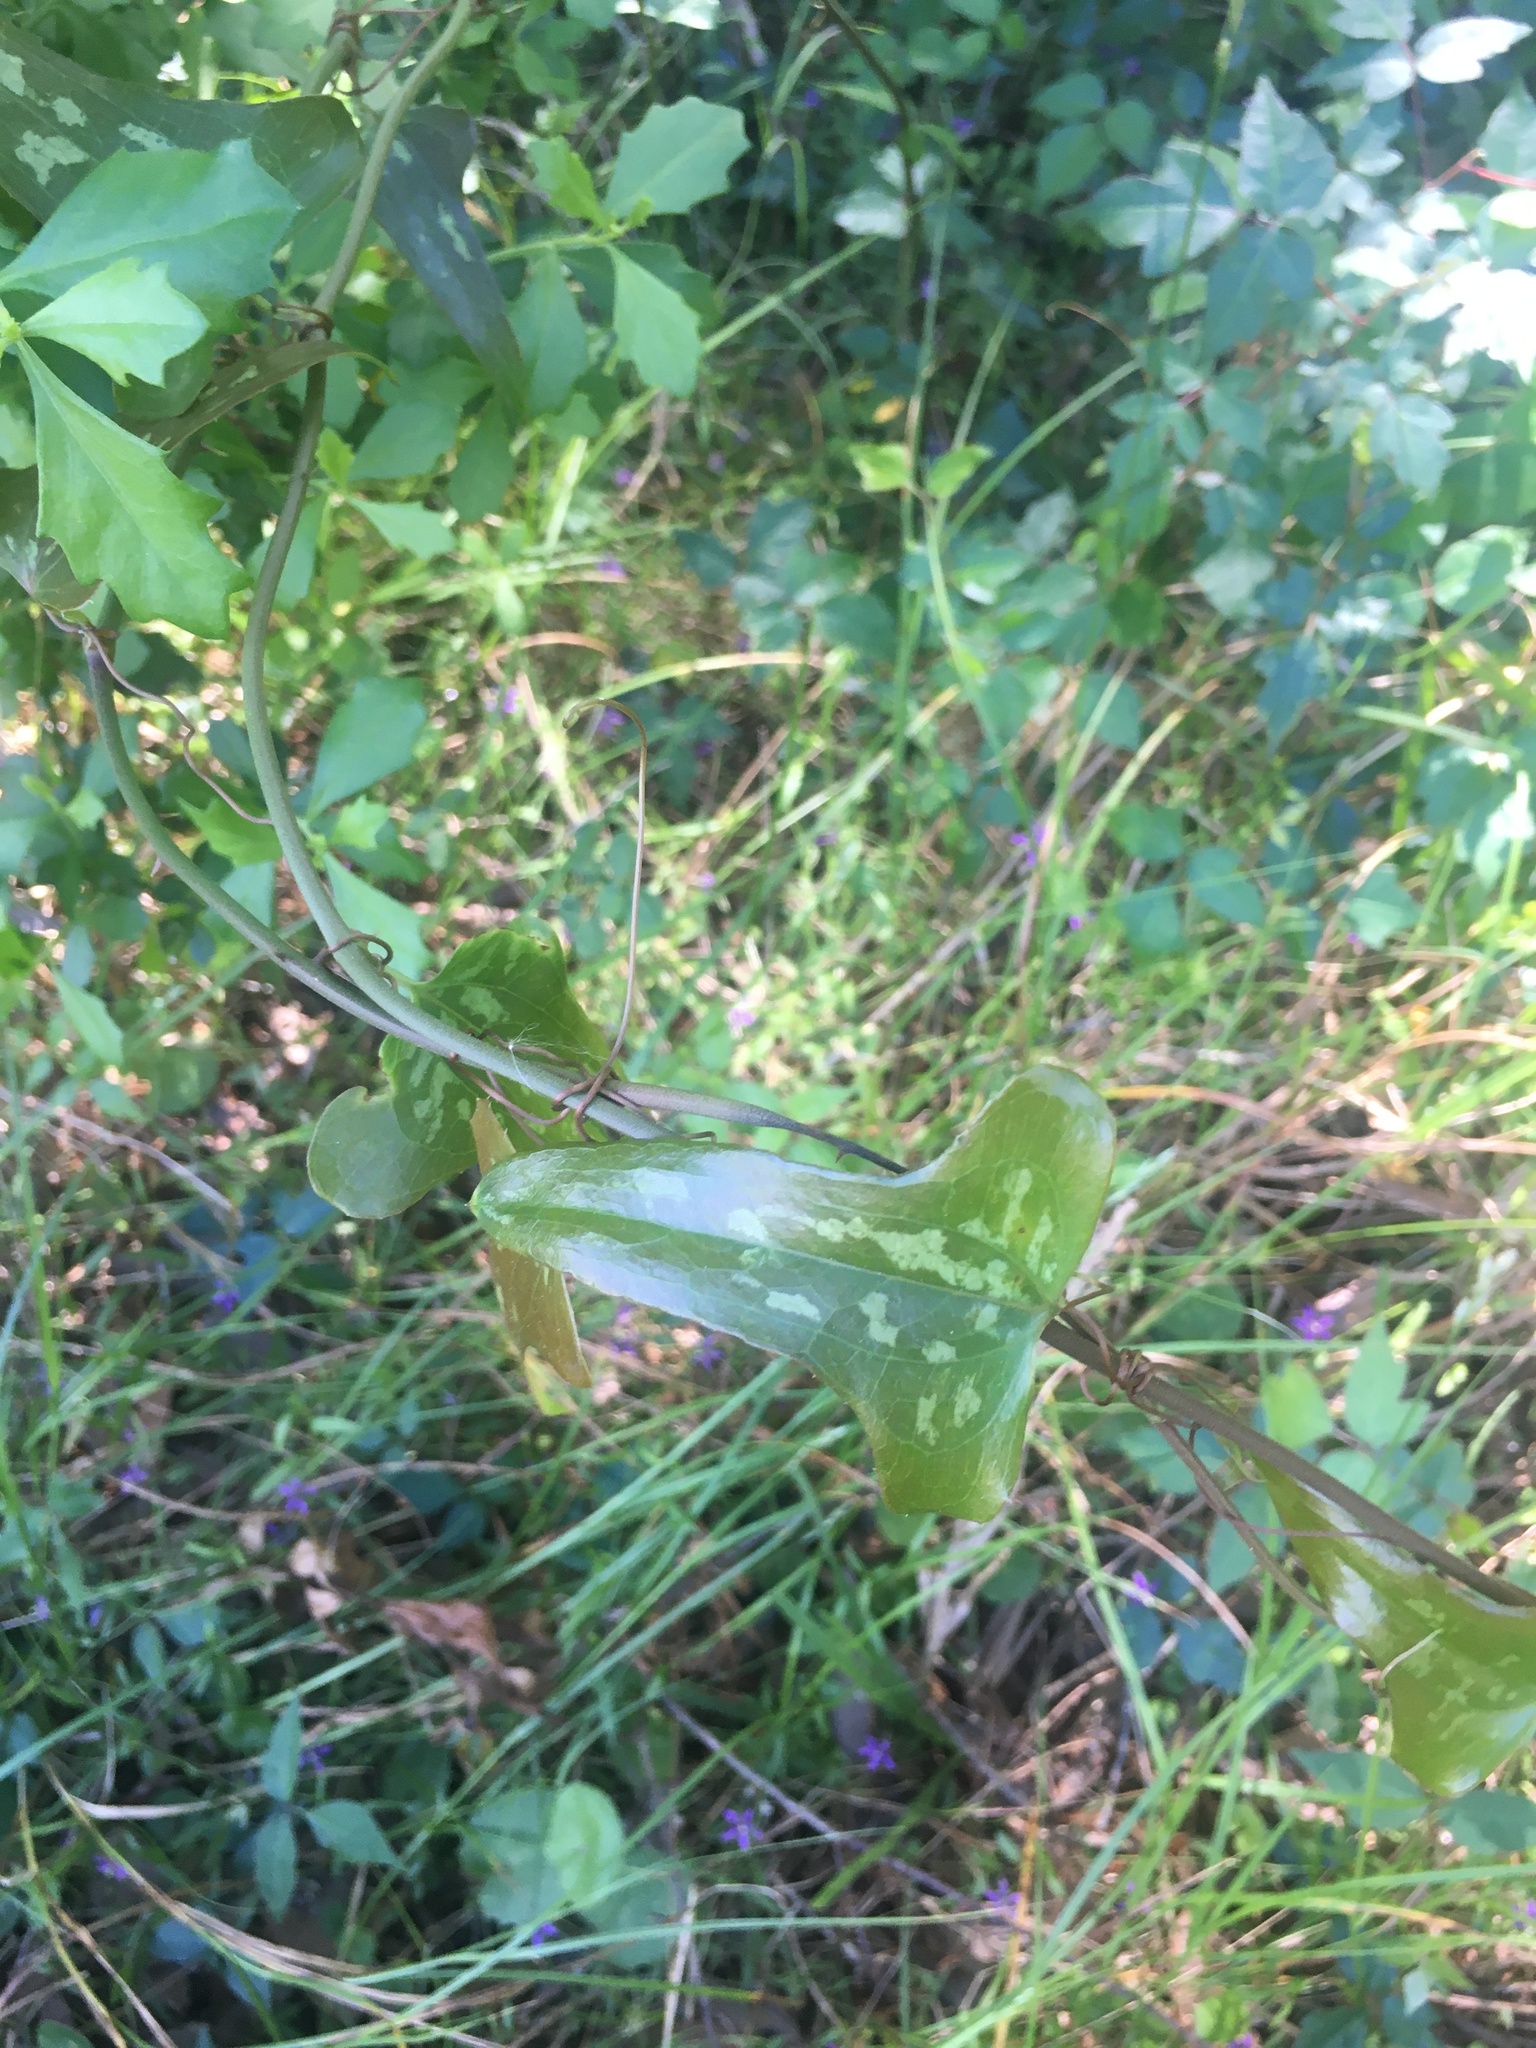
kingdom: Plantae
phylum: Tracheophyta
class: Liliopsida
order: Liliales
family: Smilacaceae
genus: Smilax
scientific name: Smilax bona-nox
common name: Catbrier
